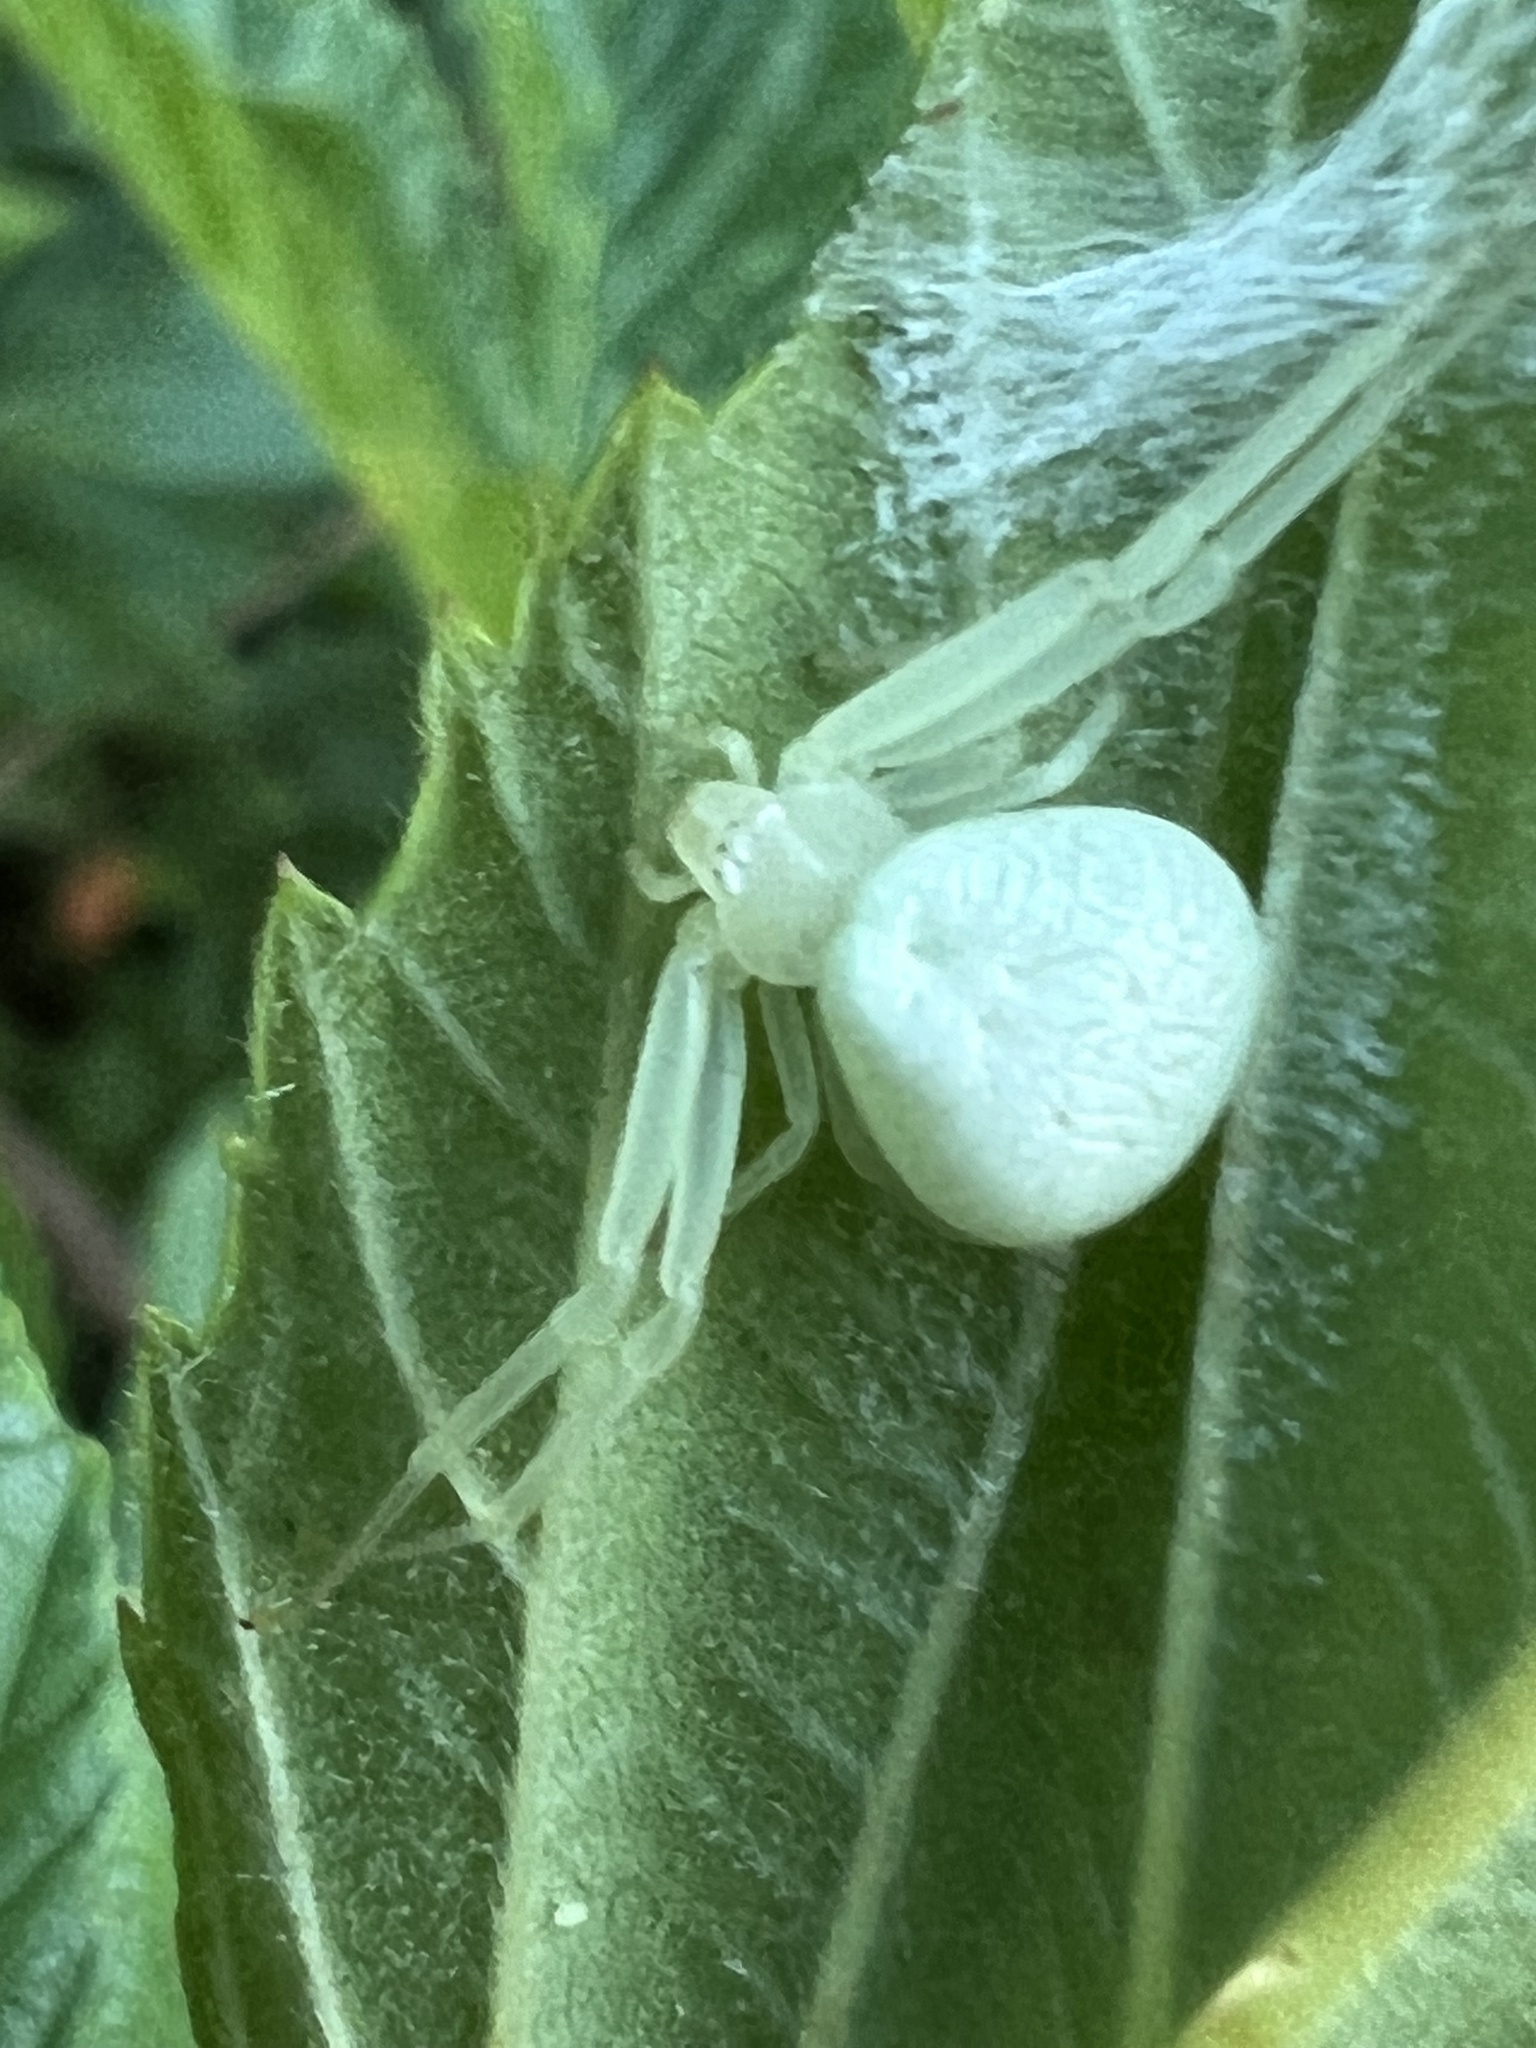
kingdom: Animalia
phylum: Arthropoda
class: Arachnida
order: Araneae
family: Thomisidae
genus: Misumessus
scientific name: Misumessus oblongus
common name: American green crab spider
